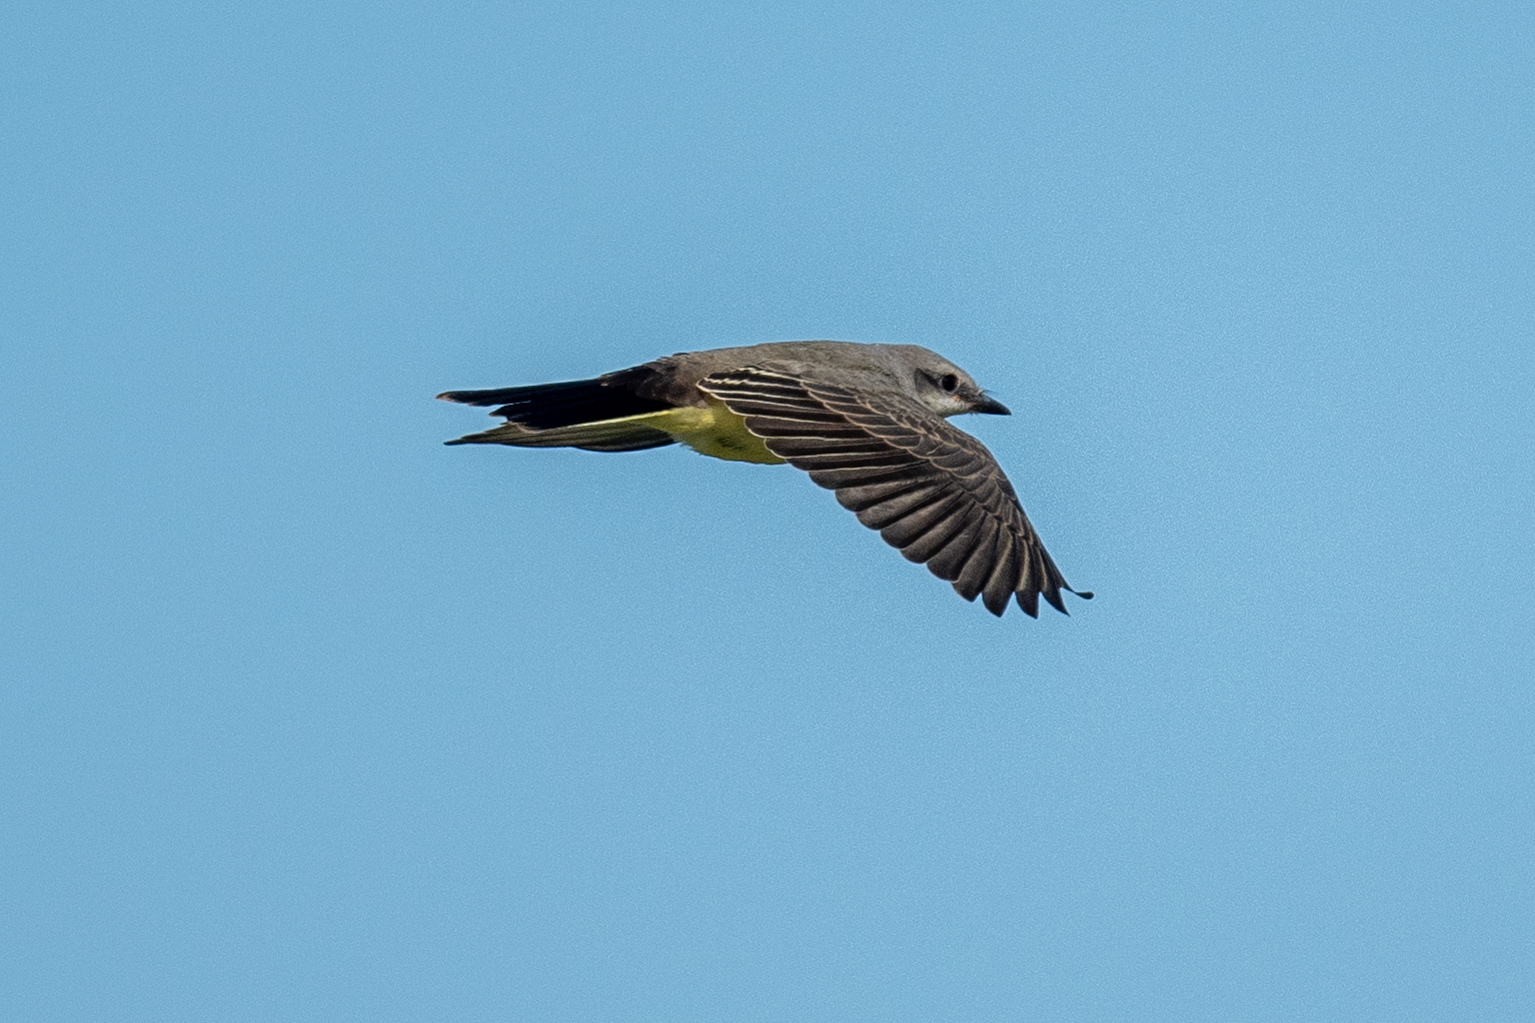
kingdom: Animalia
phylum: Chordata
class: Aves
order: Passeriformes
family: Tyrannidae
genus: Tyrannus
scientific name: Tyrannus verticalis
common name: Western kingbird
